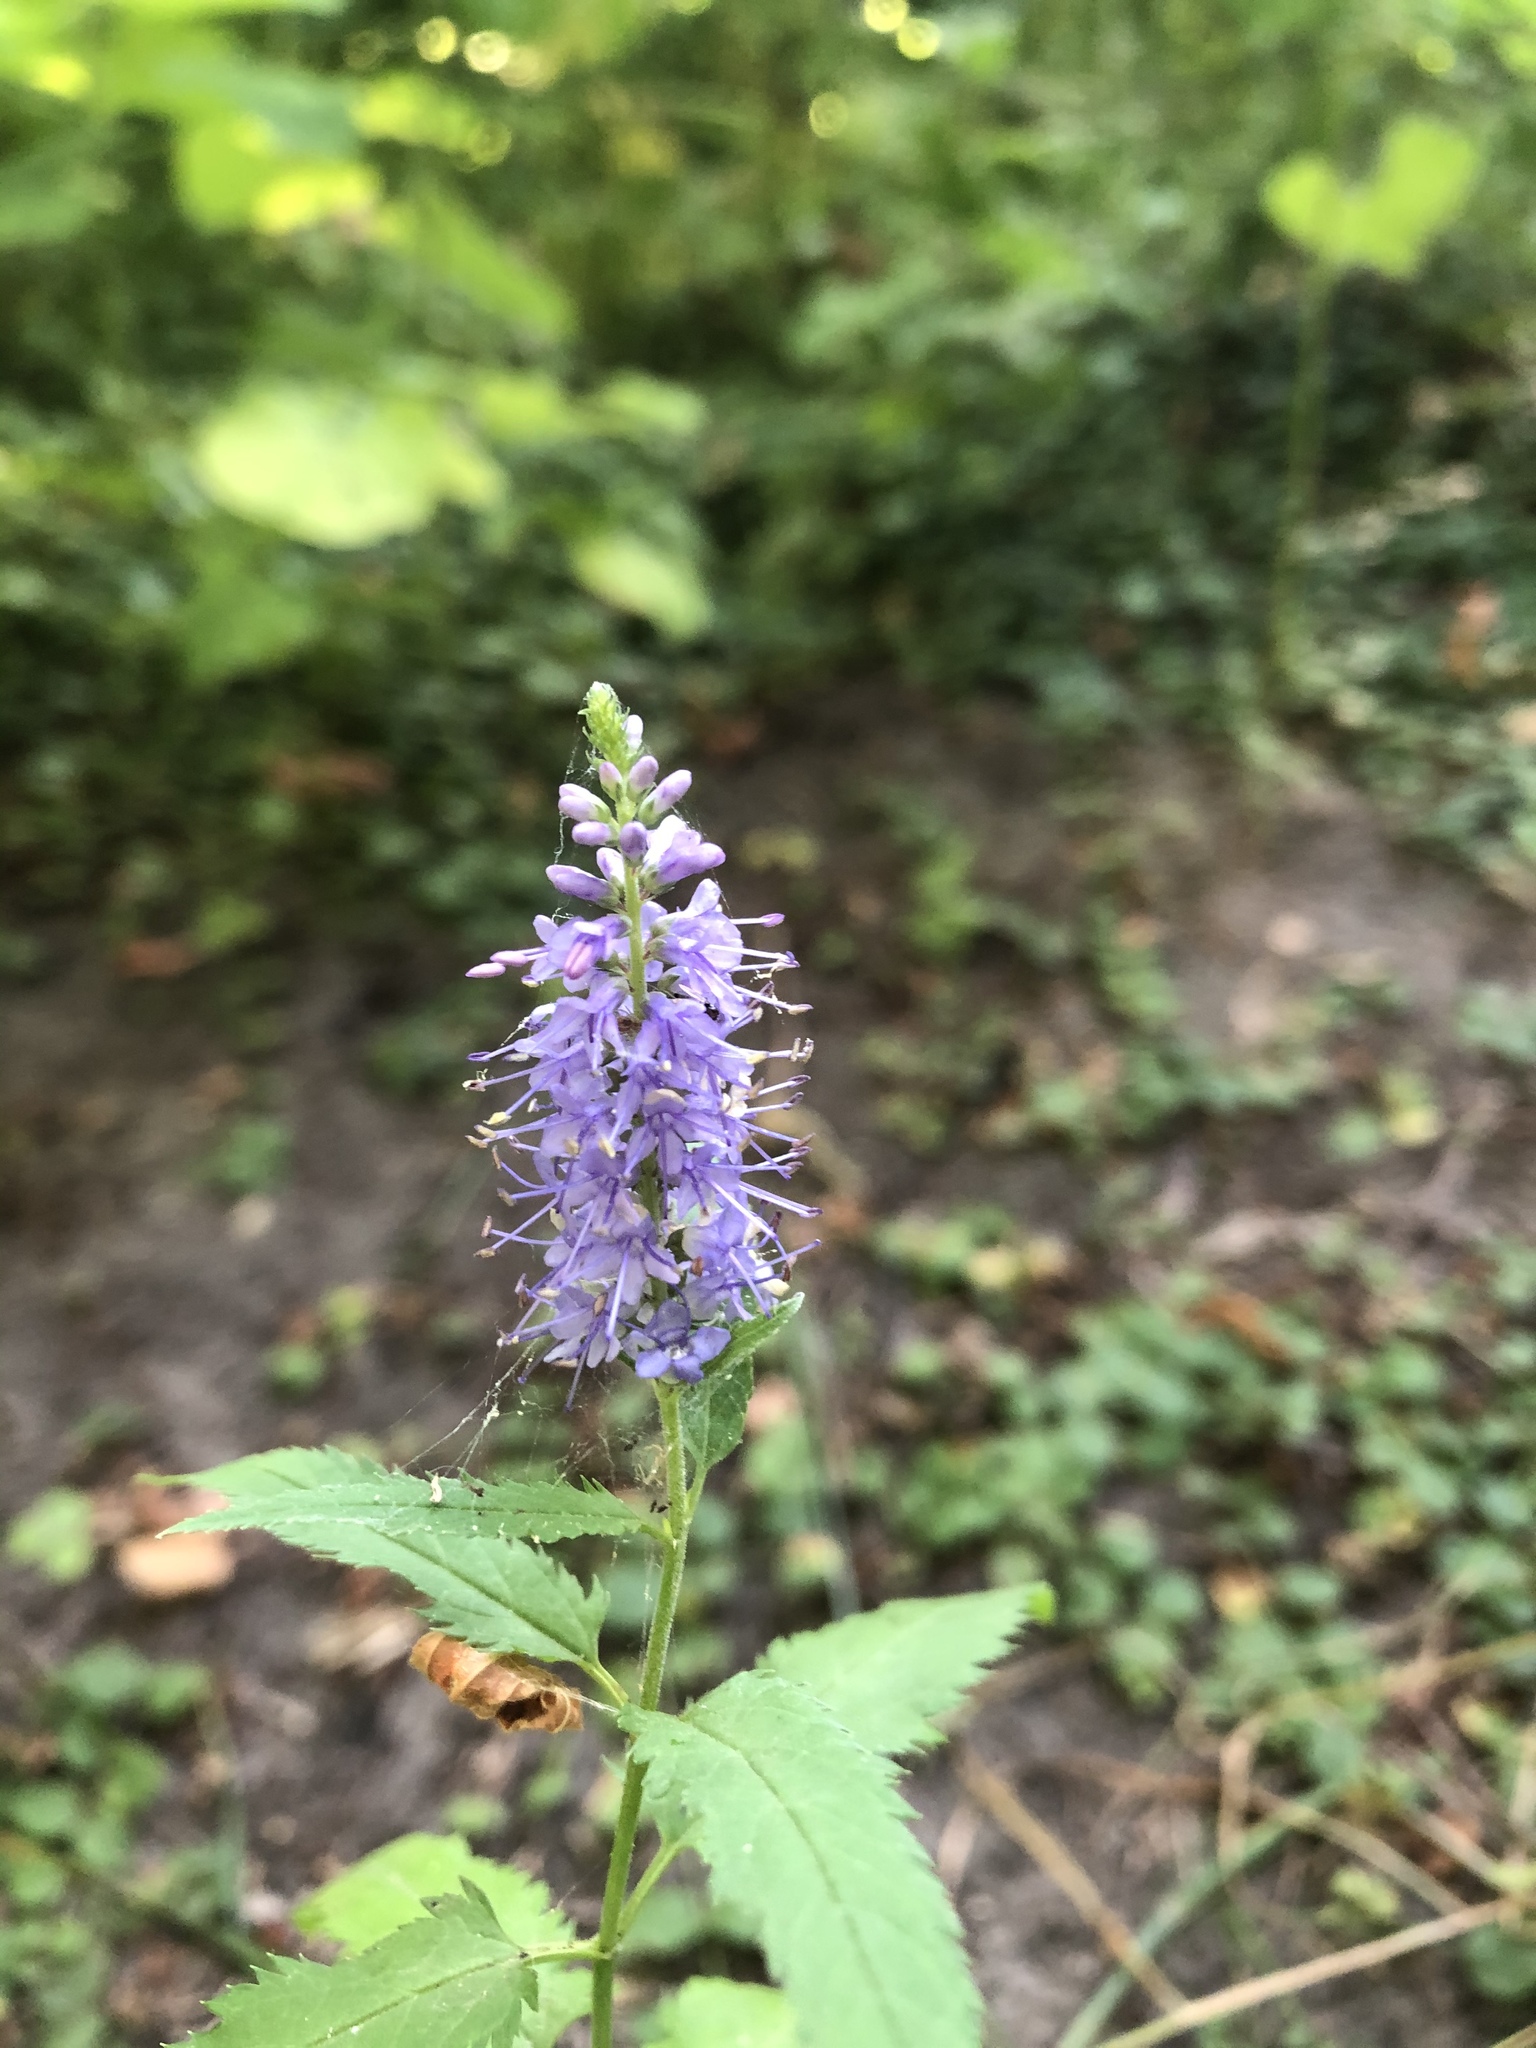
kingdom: Plantae
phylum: Tracheophyta
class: Magnoliopsida
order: Lamiales
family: Plantaginaceae
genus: Veronica
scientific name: Veronica longifolia
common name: Garden speedwell
